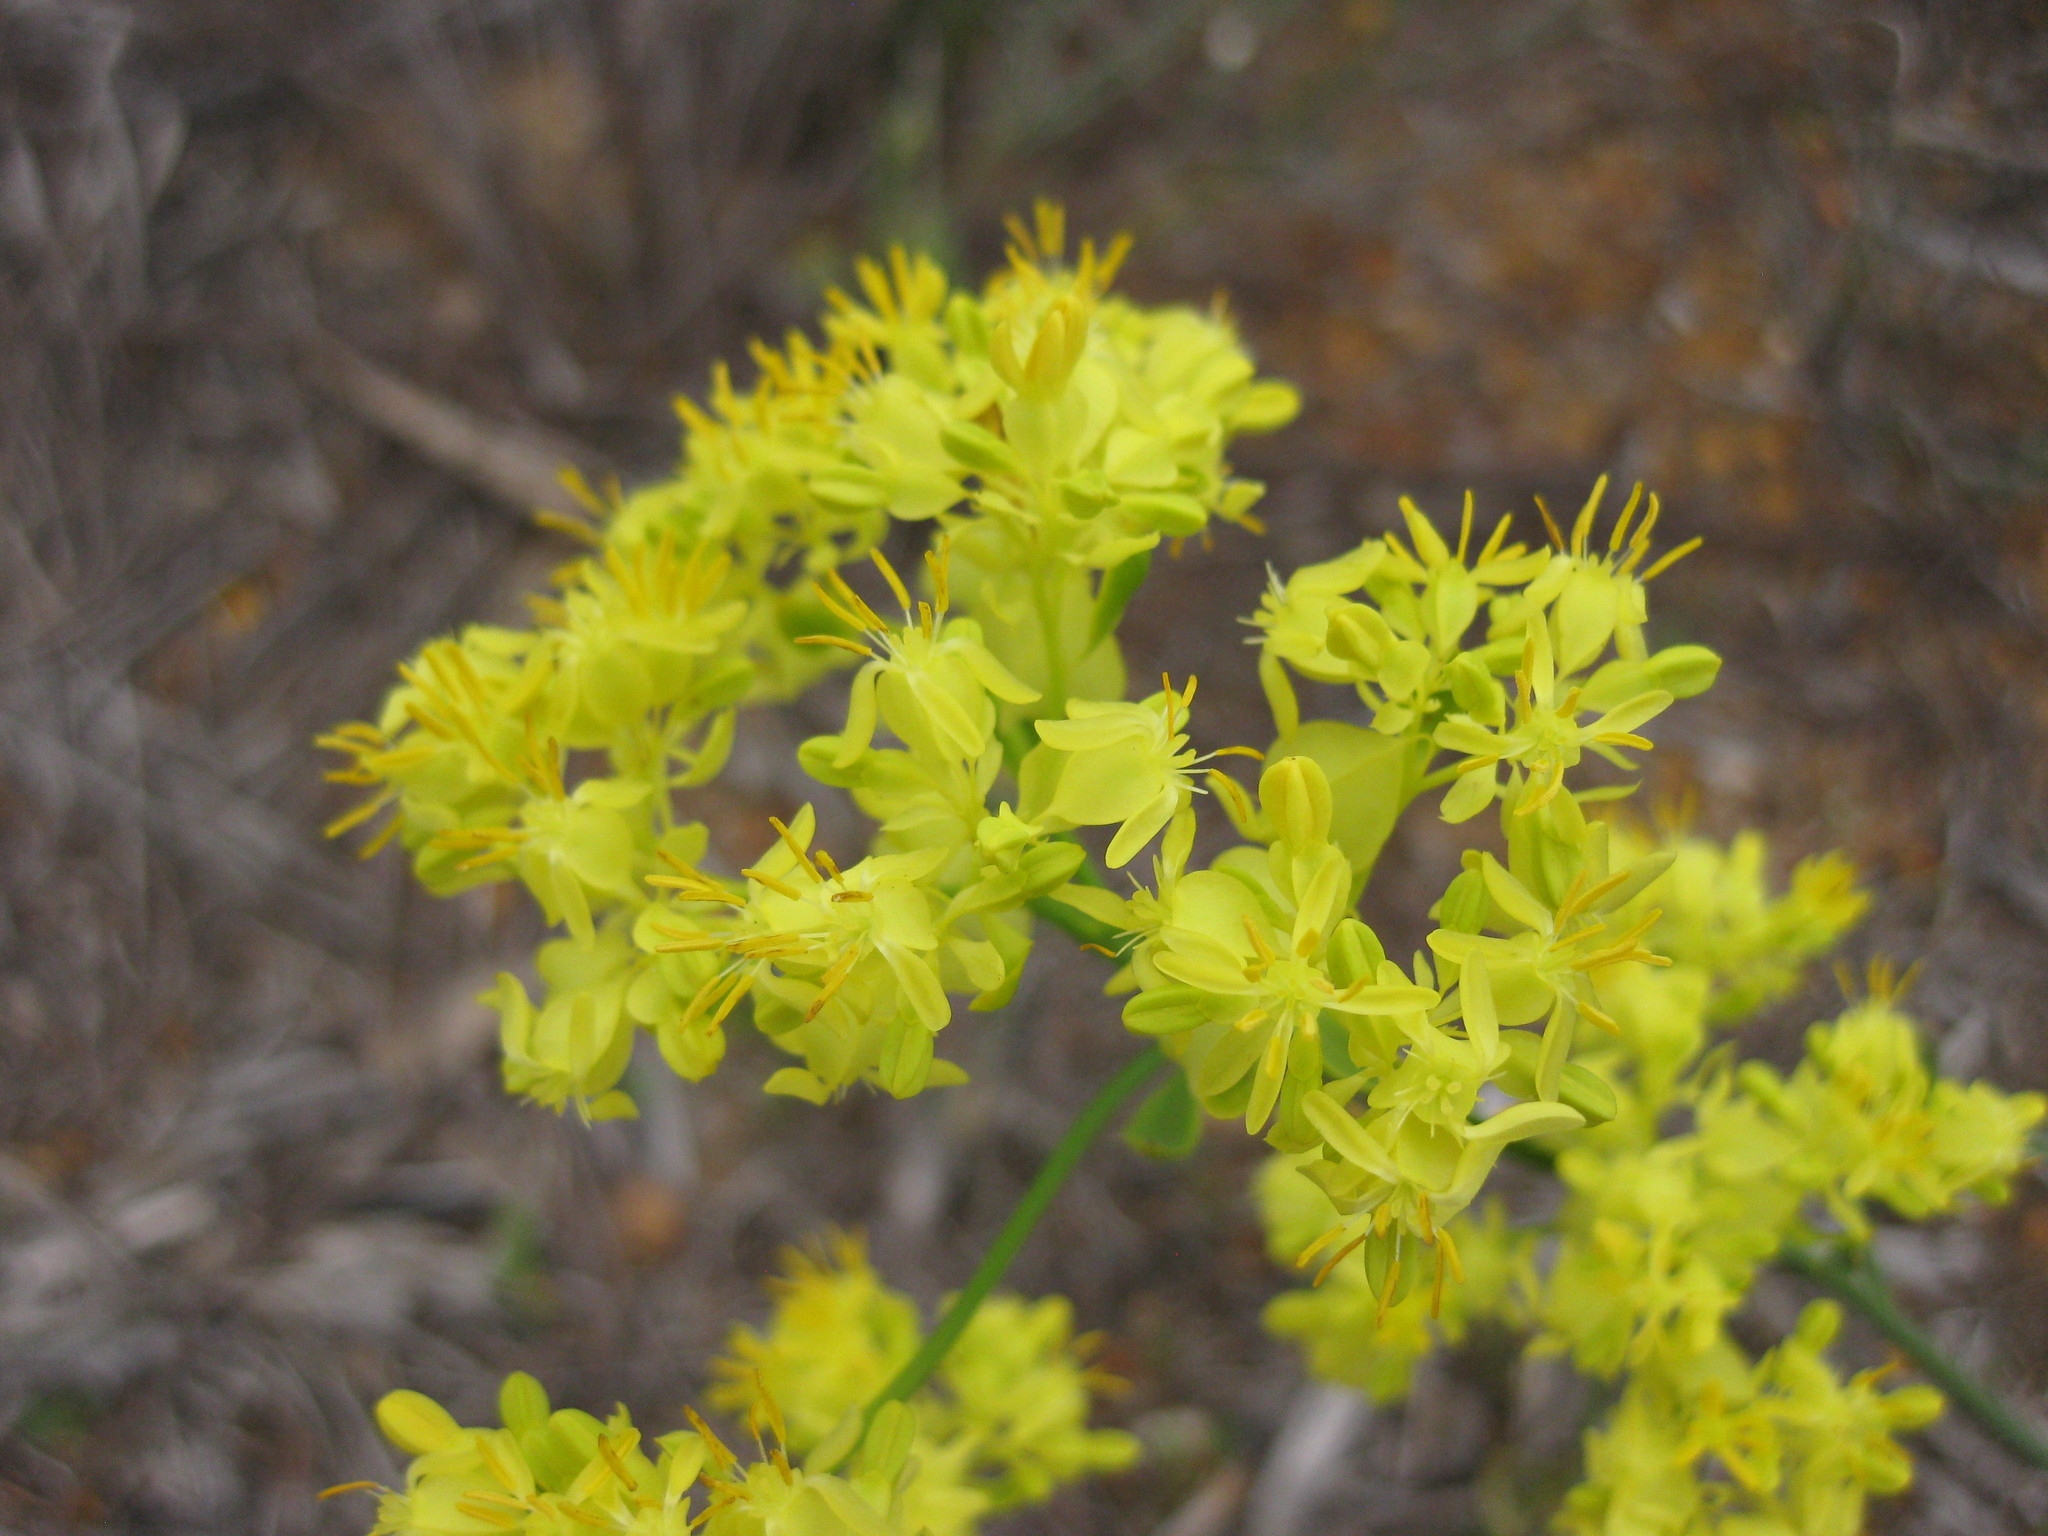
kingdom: Plantae
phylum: Tracheophyta
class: Magnoliopsida
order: Saxifragales
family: Haloragaceae
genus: Glischrocaryon
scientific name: Glischrocaryon aureum
